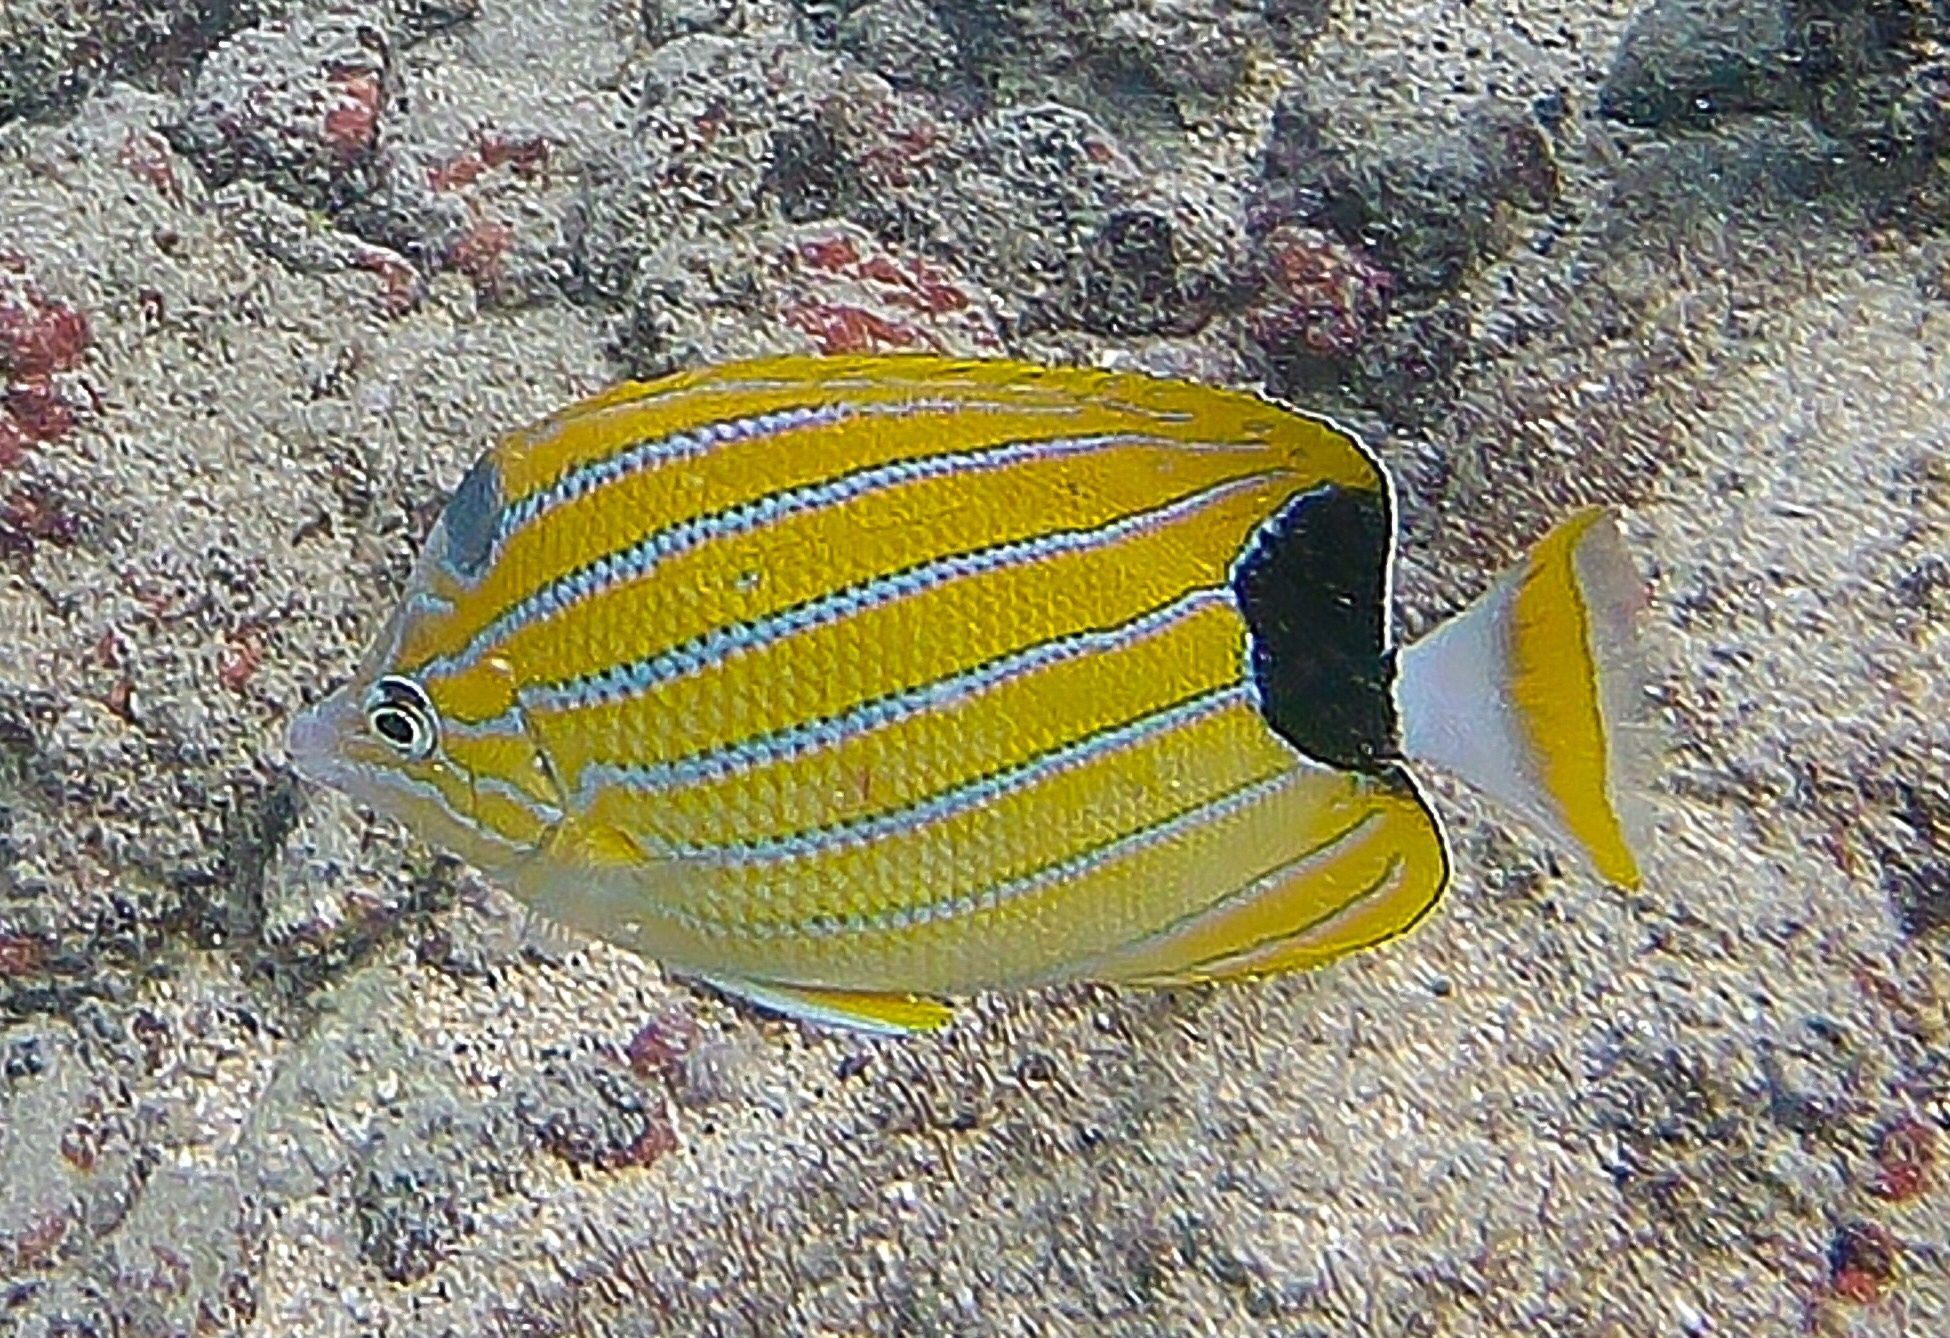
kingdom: Animalia
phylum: Chordata
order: Perciformes
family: Chaetodontidae
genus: Chaetodon
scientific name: Chaetodon fremblii
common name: Bluestriped butterflyfish
